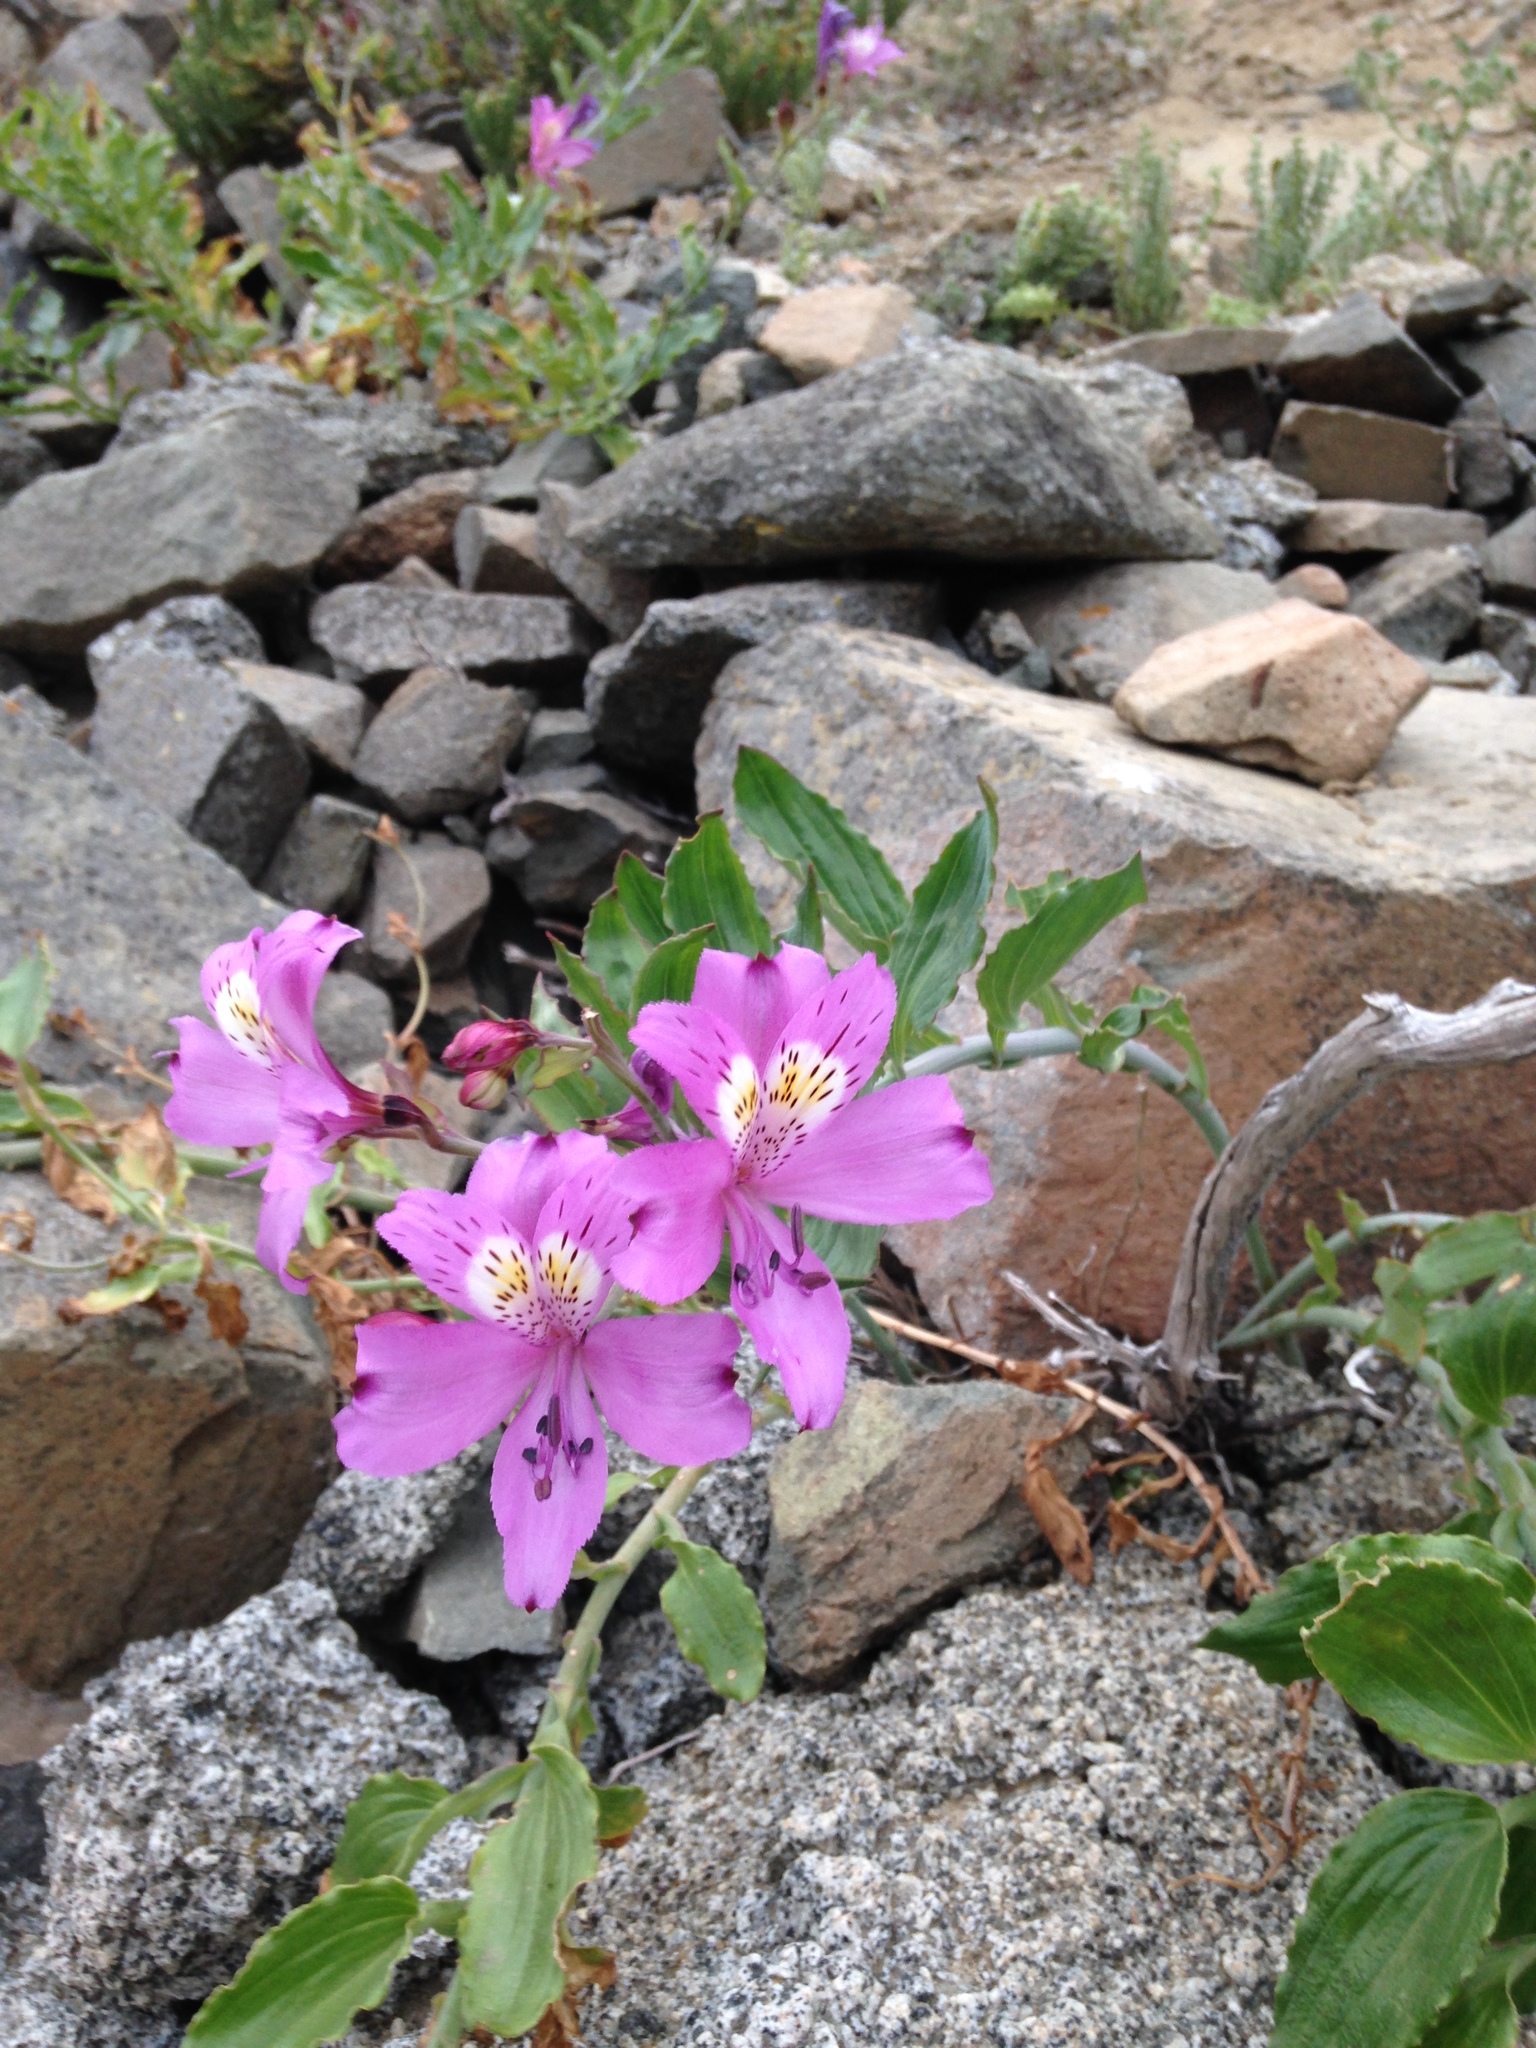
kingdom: Plantae
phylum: Tracheophyta
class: Liliopsida
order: Liliales
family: Alstroemeriaceae
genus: Alstroemeria
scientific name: Alstroemeria violacea
